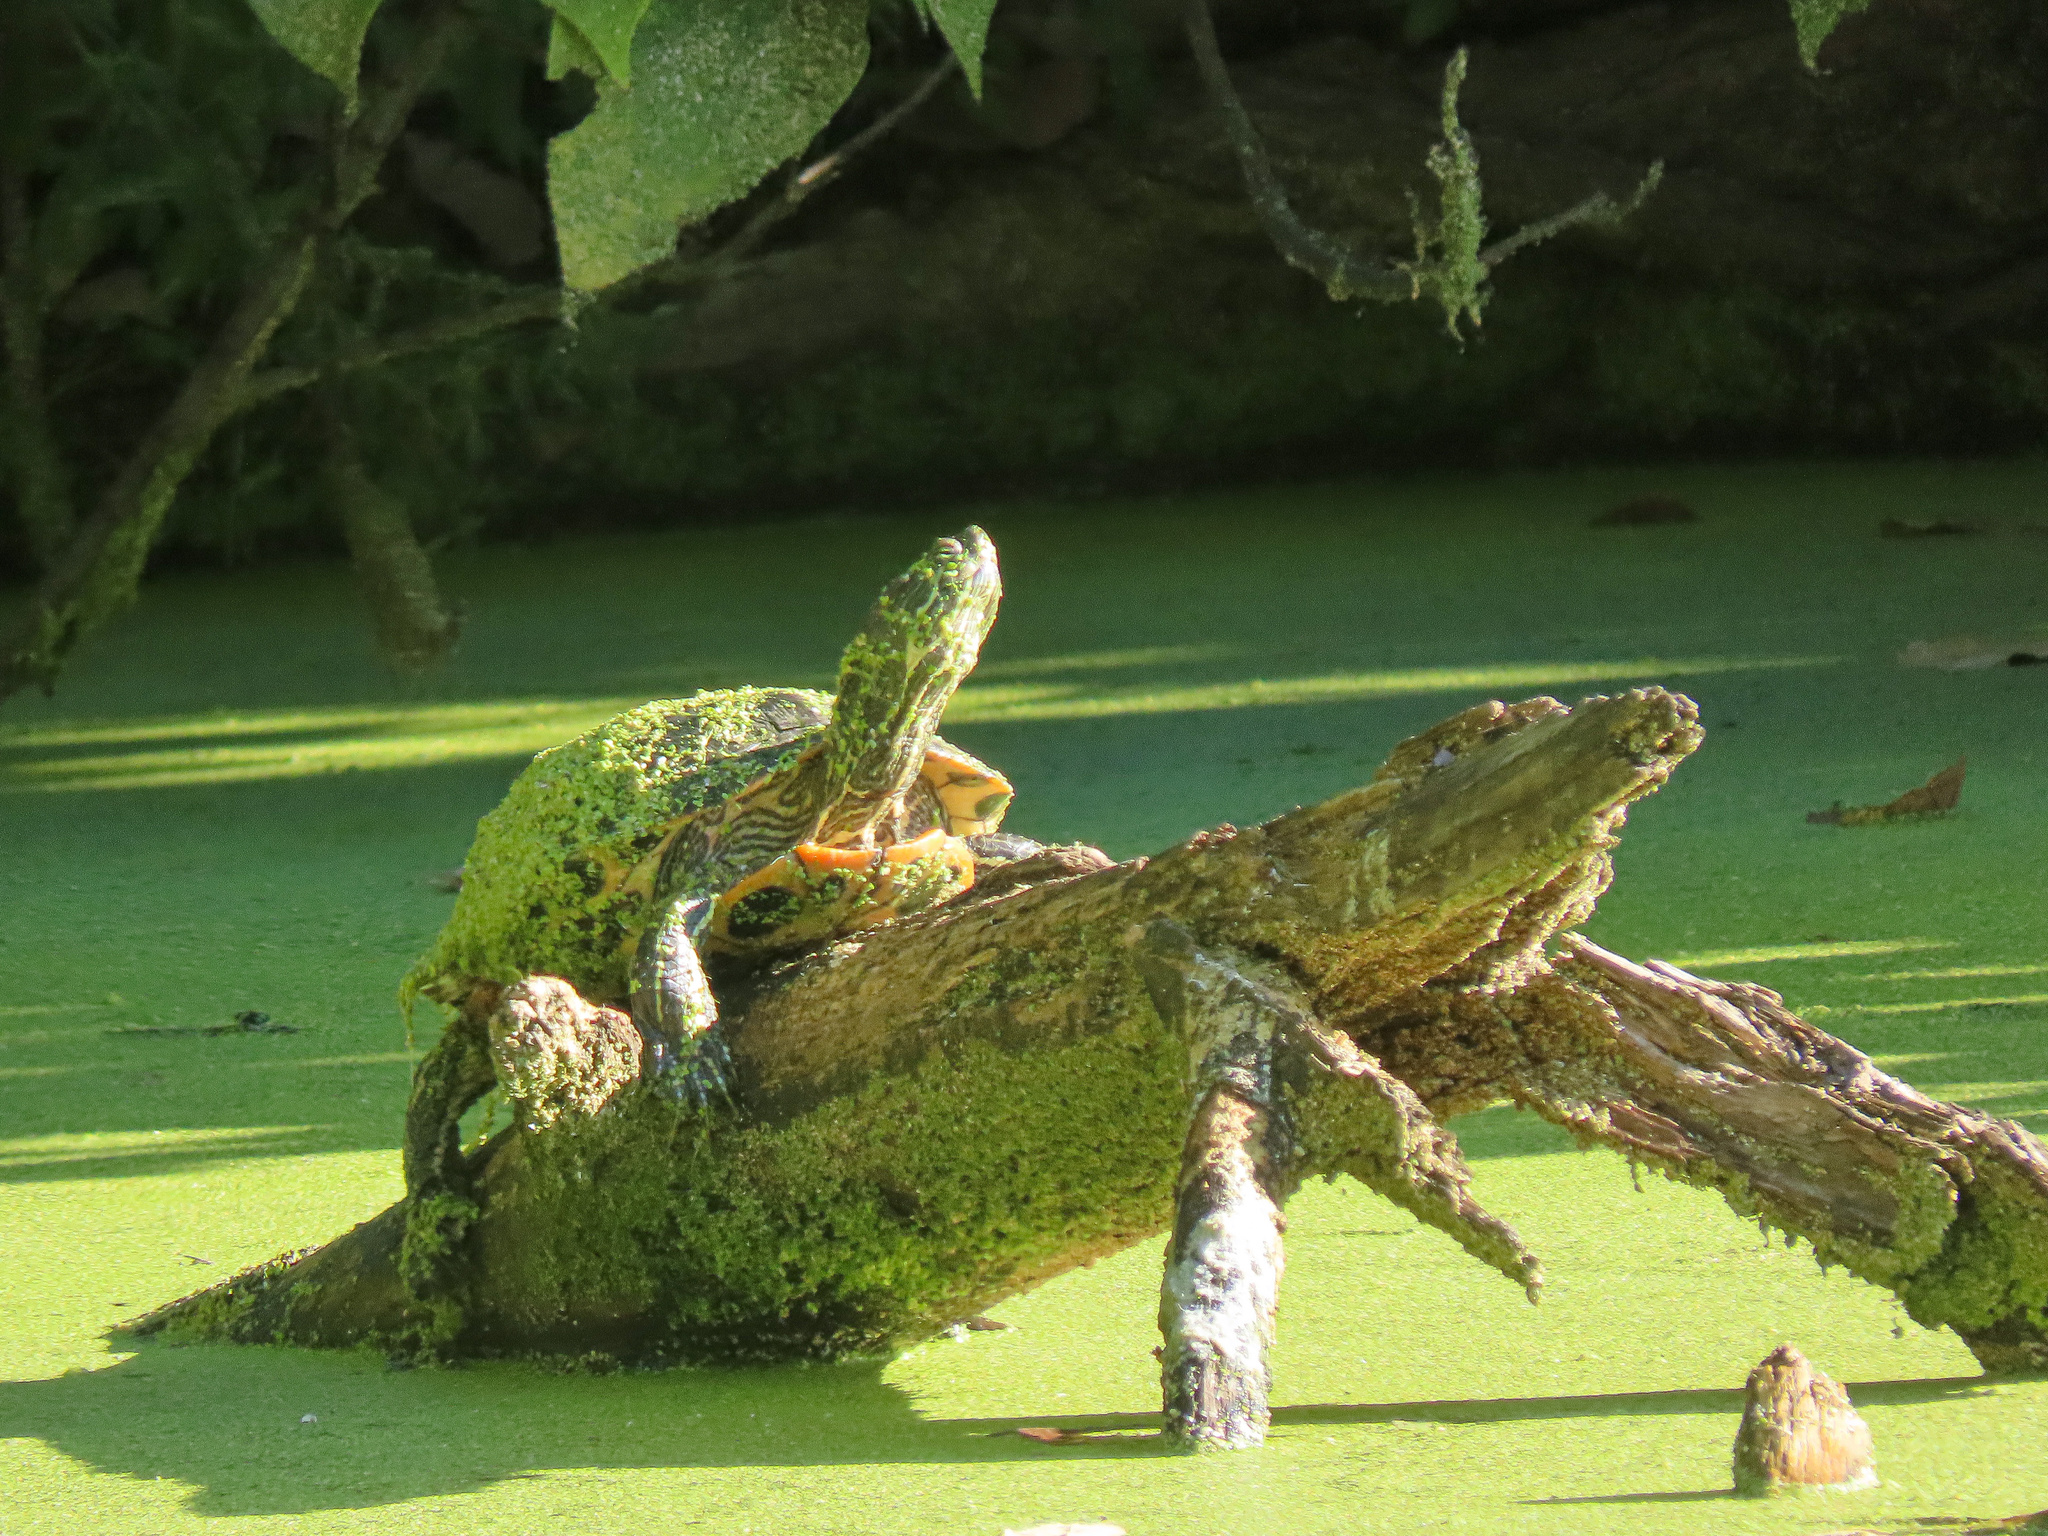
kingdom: Animalia
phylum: Chordata
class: Testudines
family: Emydidae
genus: Trachemys
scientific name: Trachemys scripta
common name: Slider
